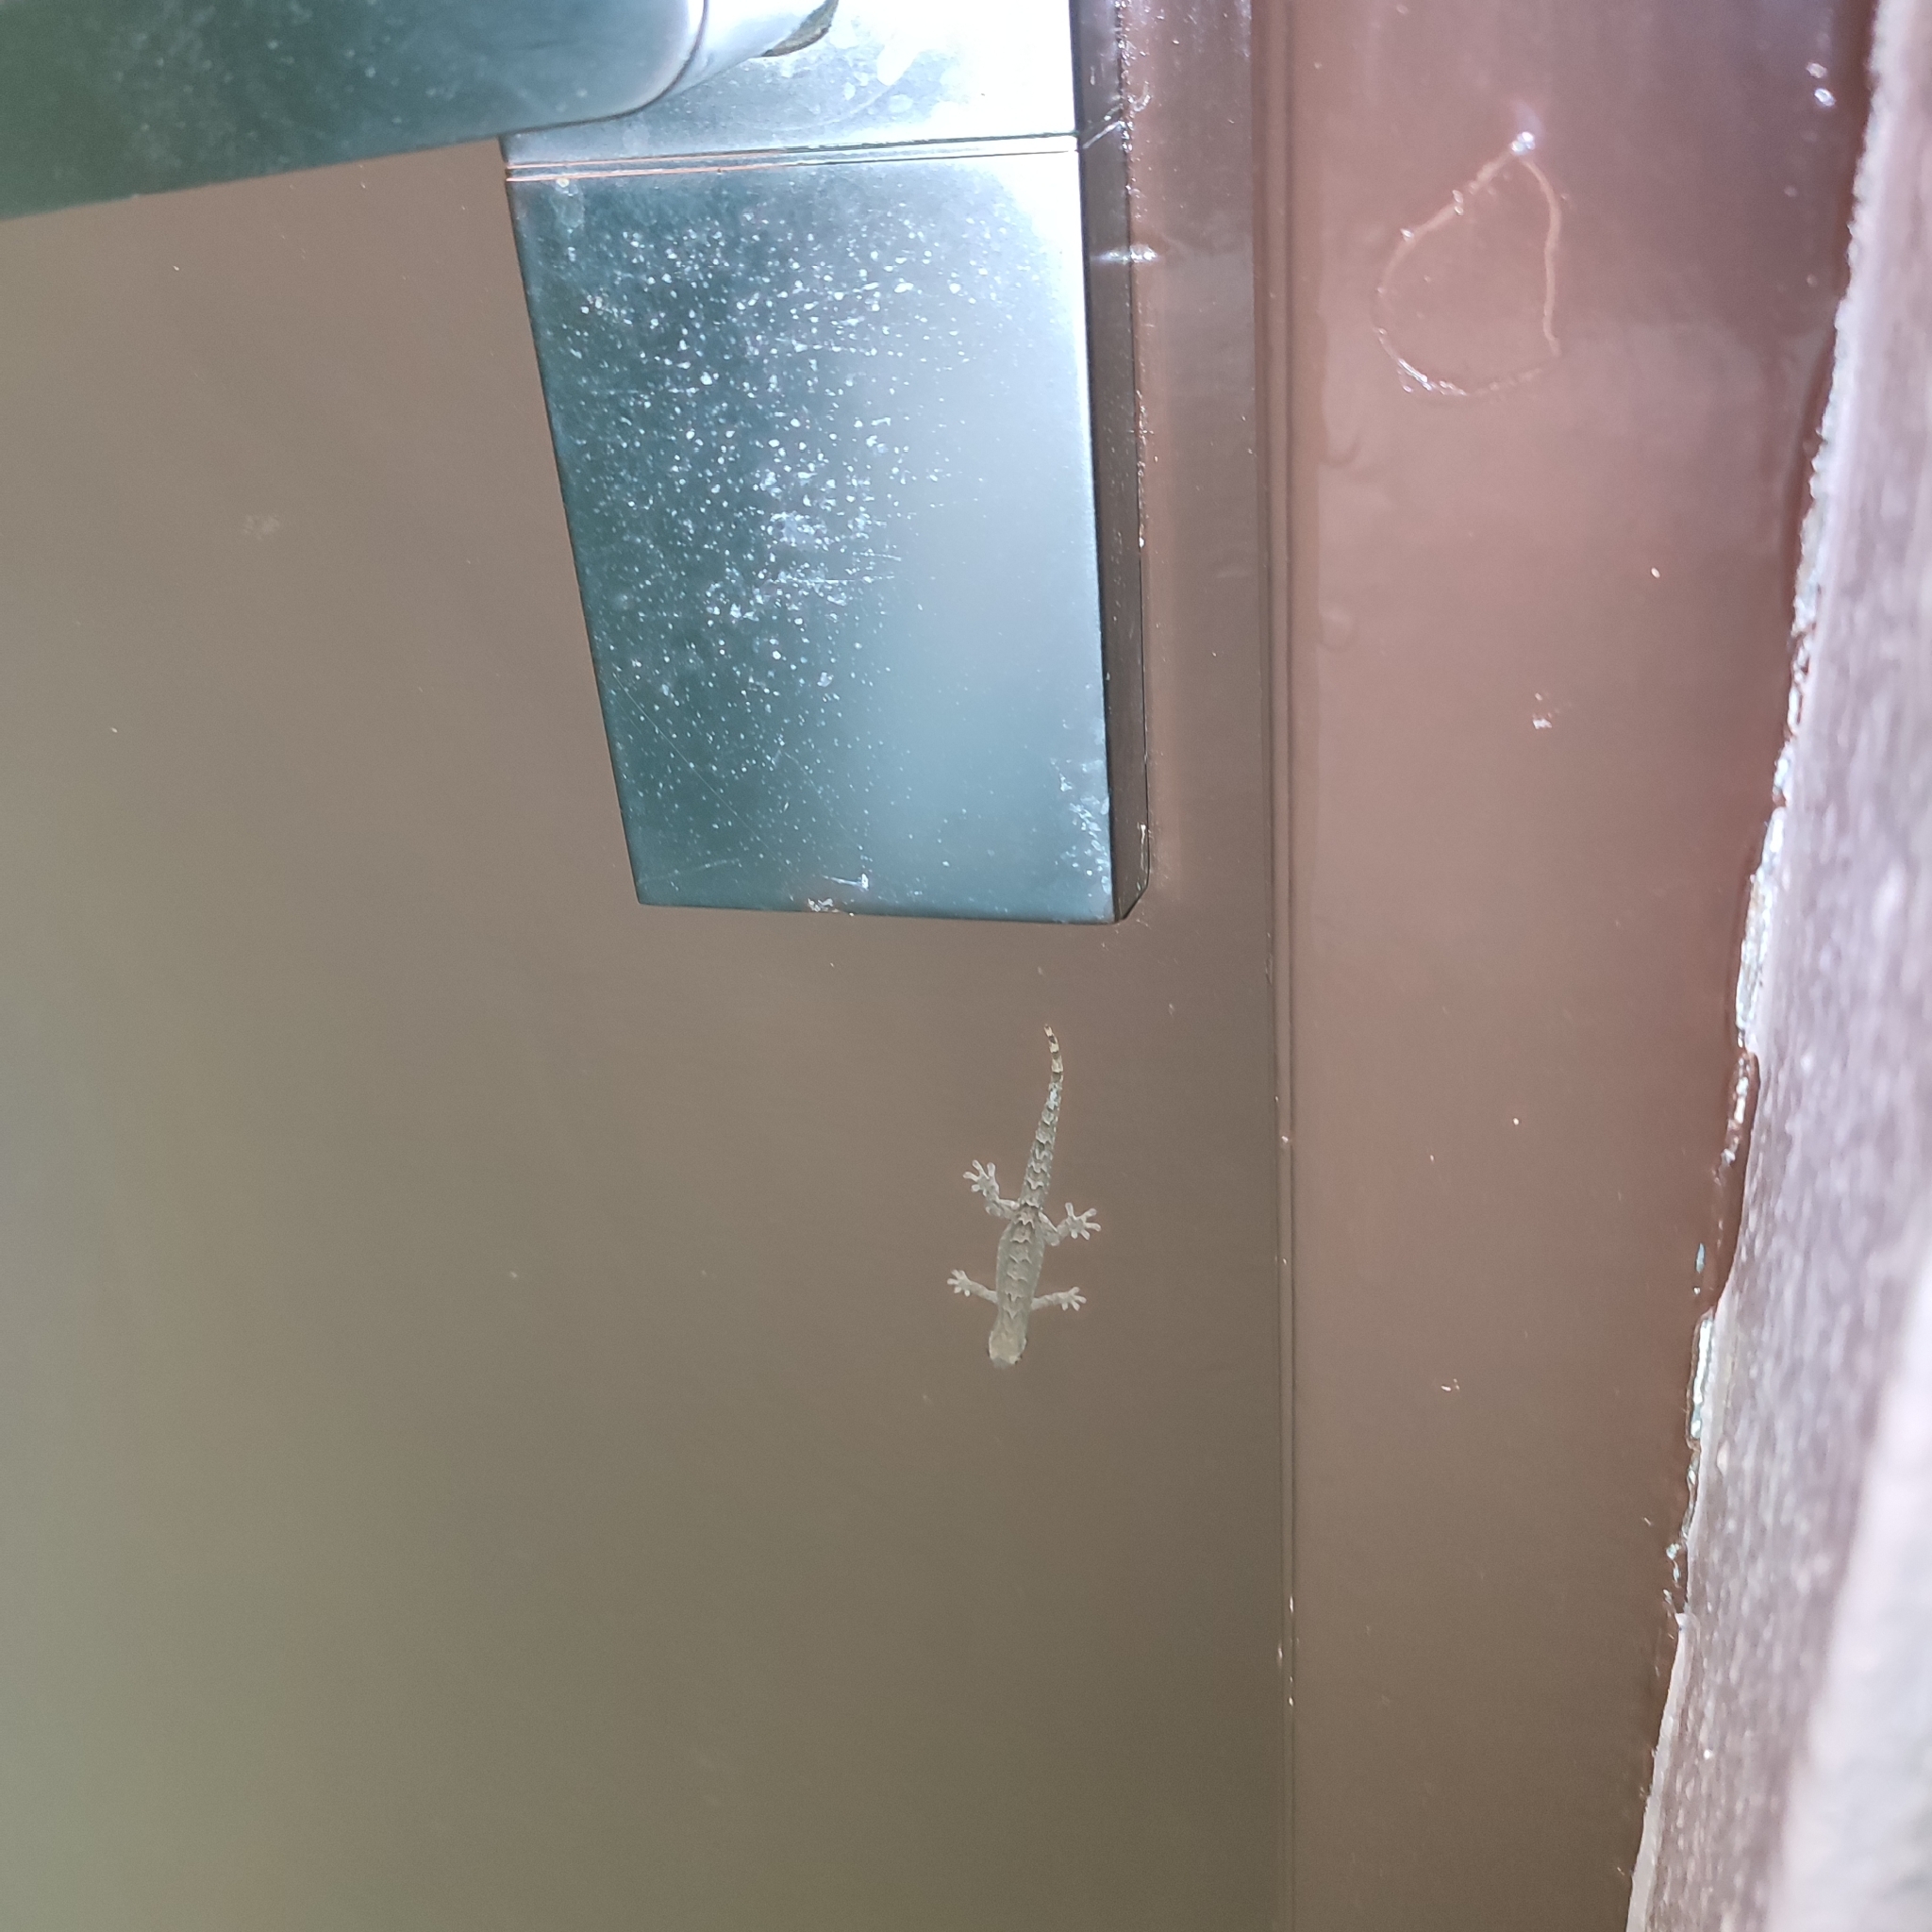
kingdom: Animalia
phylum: Chordata
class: Squamata
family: Gekkonidae
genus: Lepidodactylus
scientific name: Lepidodactylus lugubris
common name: Mourning gecko
